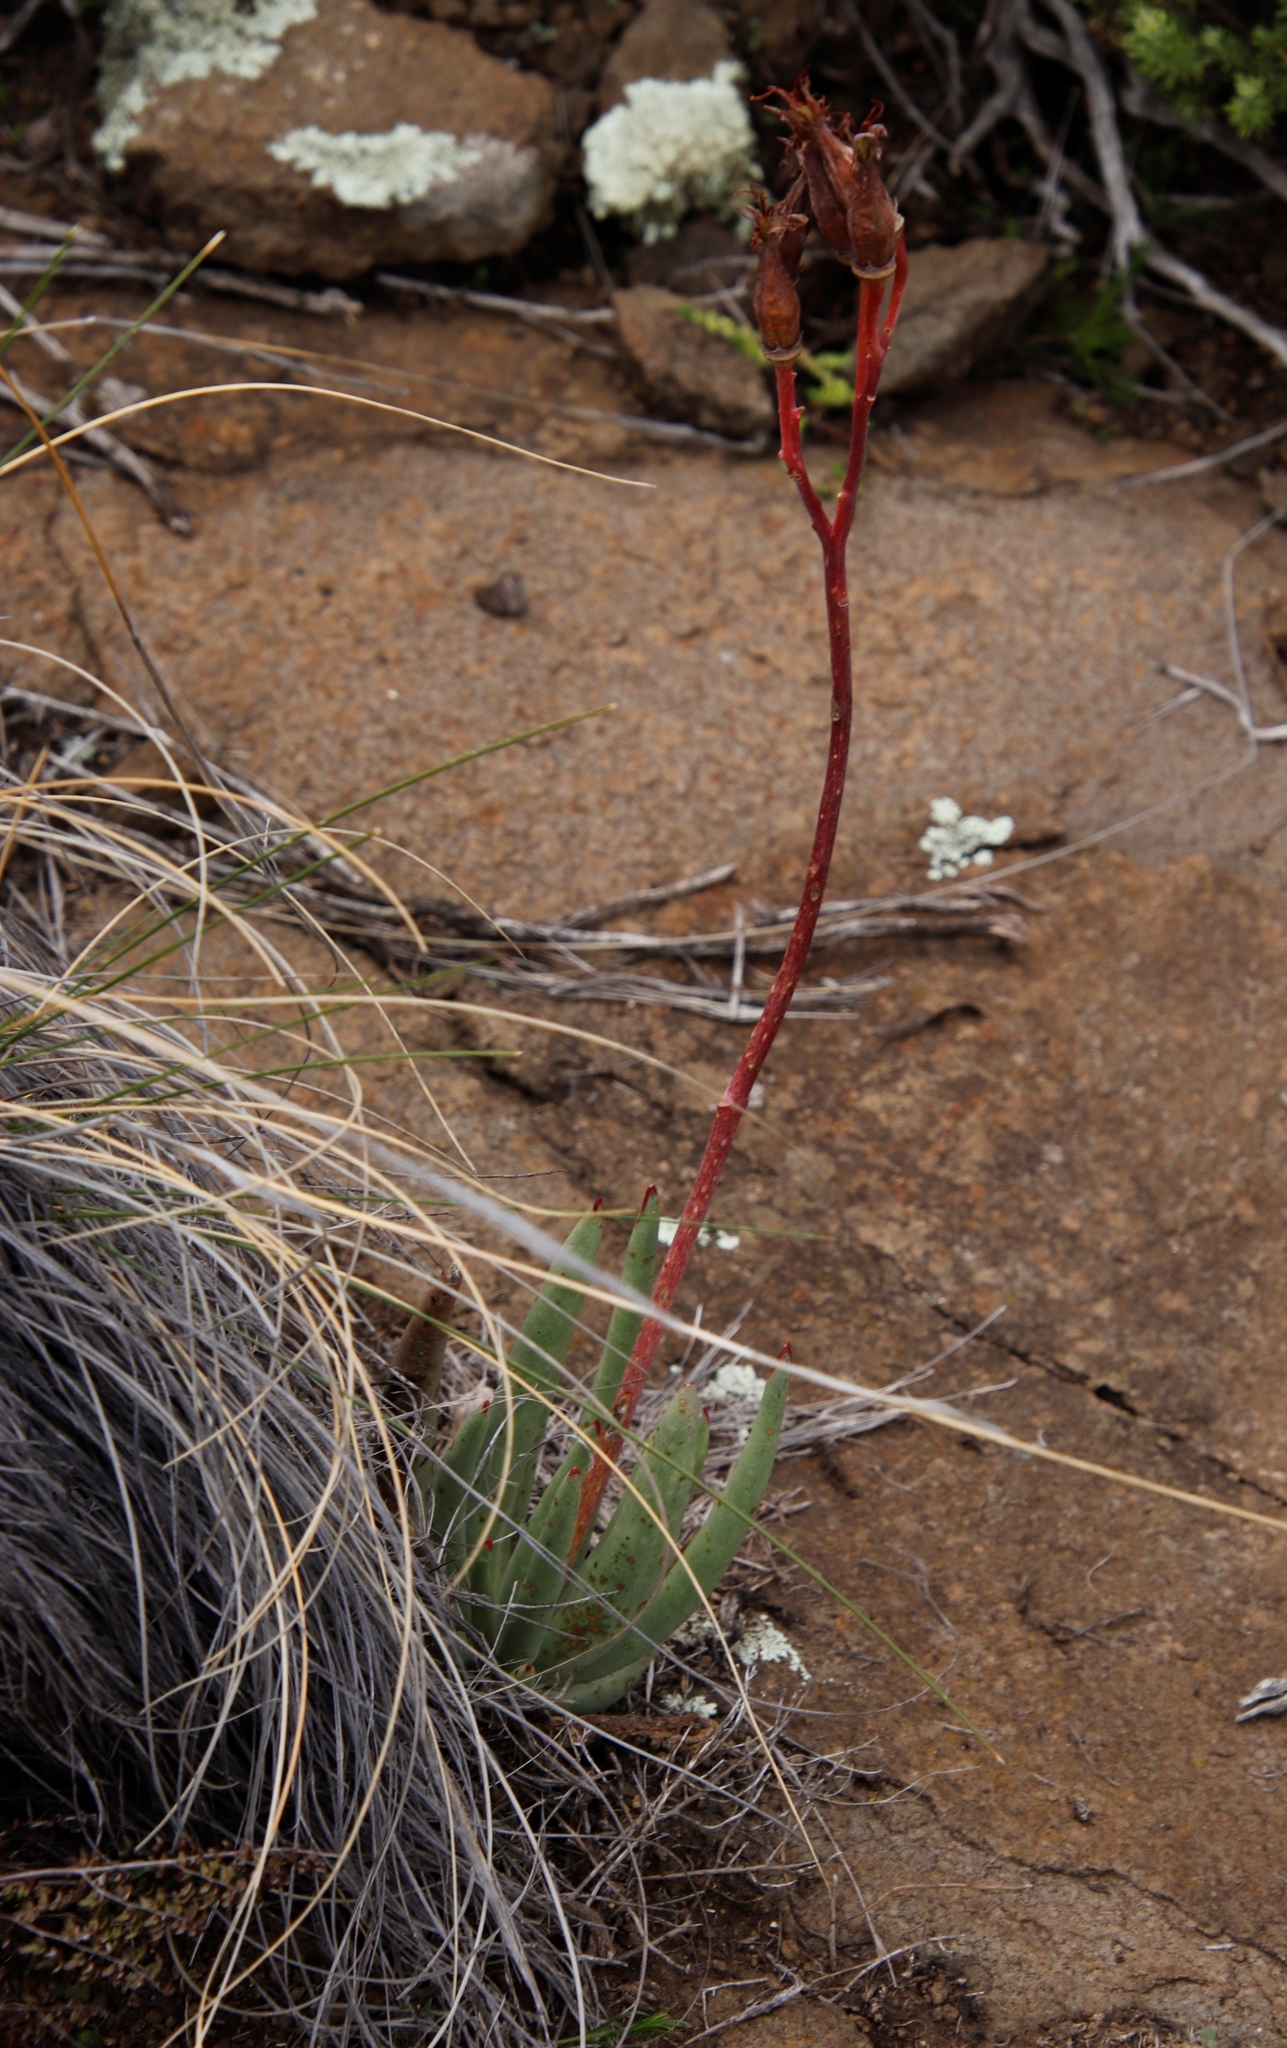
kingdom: Plantae
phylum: Tracheophyta
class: Magnoliopsida
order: Saxifragales
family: Crassulaceae
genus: Cotyledon
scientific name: Cotyledon orbiculata
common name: Pig's ear
